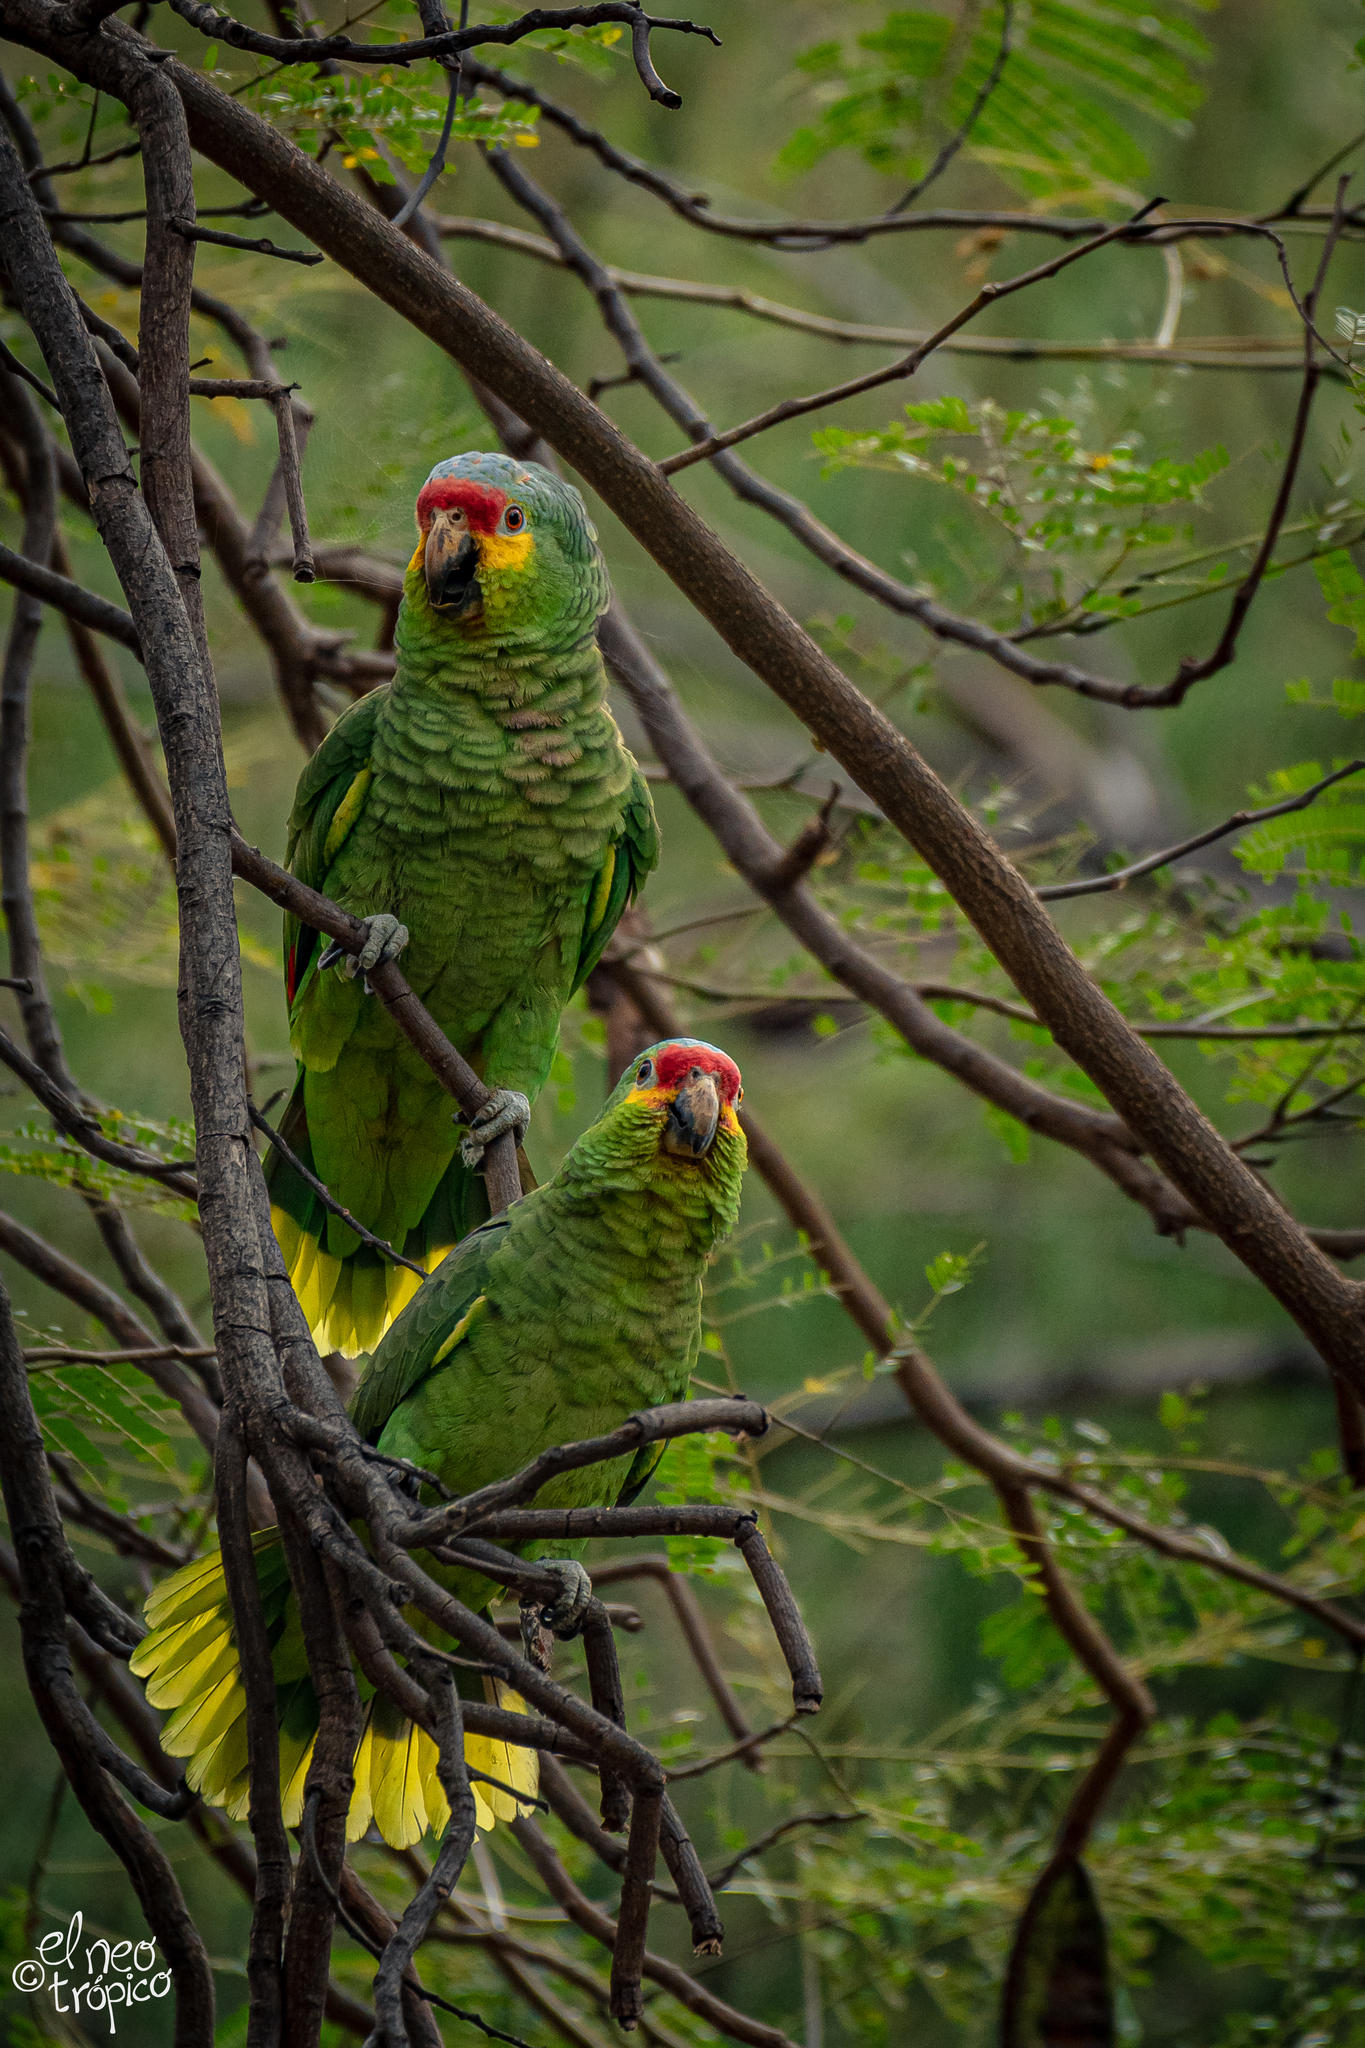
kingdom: Animalia
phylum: Chordata
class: Aves
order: Psittaciformes
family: Psittacidae
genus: Amazona
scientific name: Amazona autumnalis
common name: Red-lored amazon
